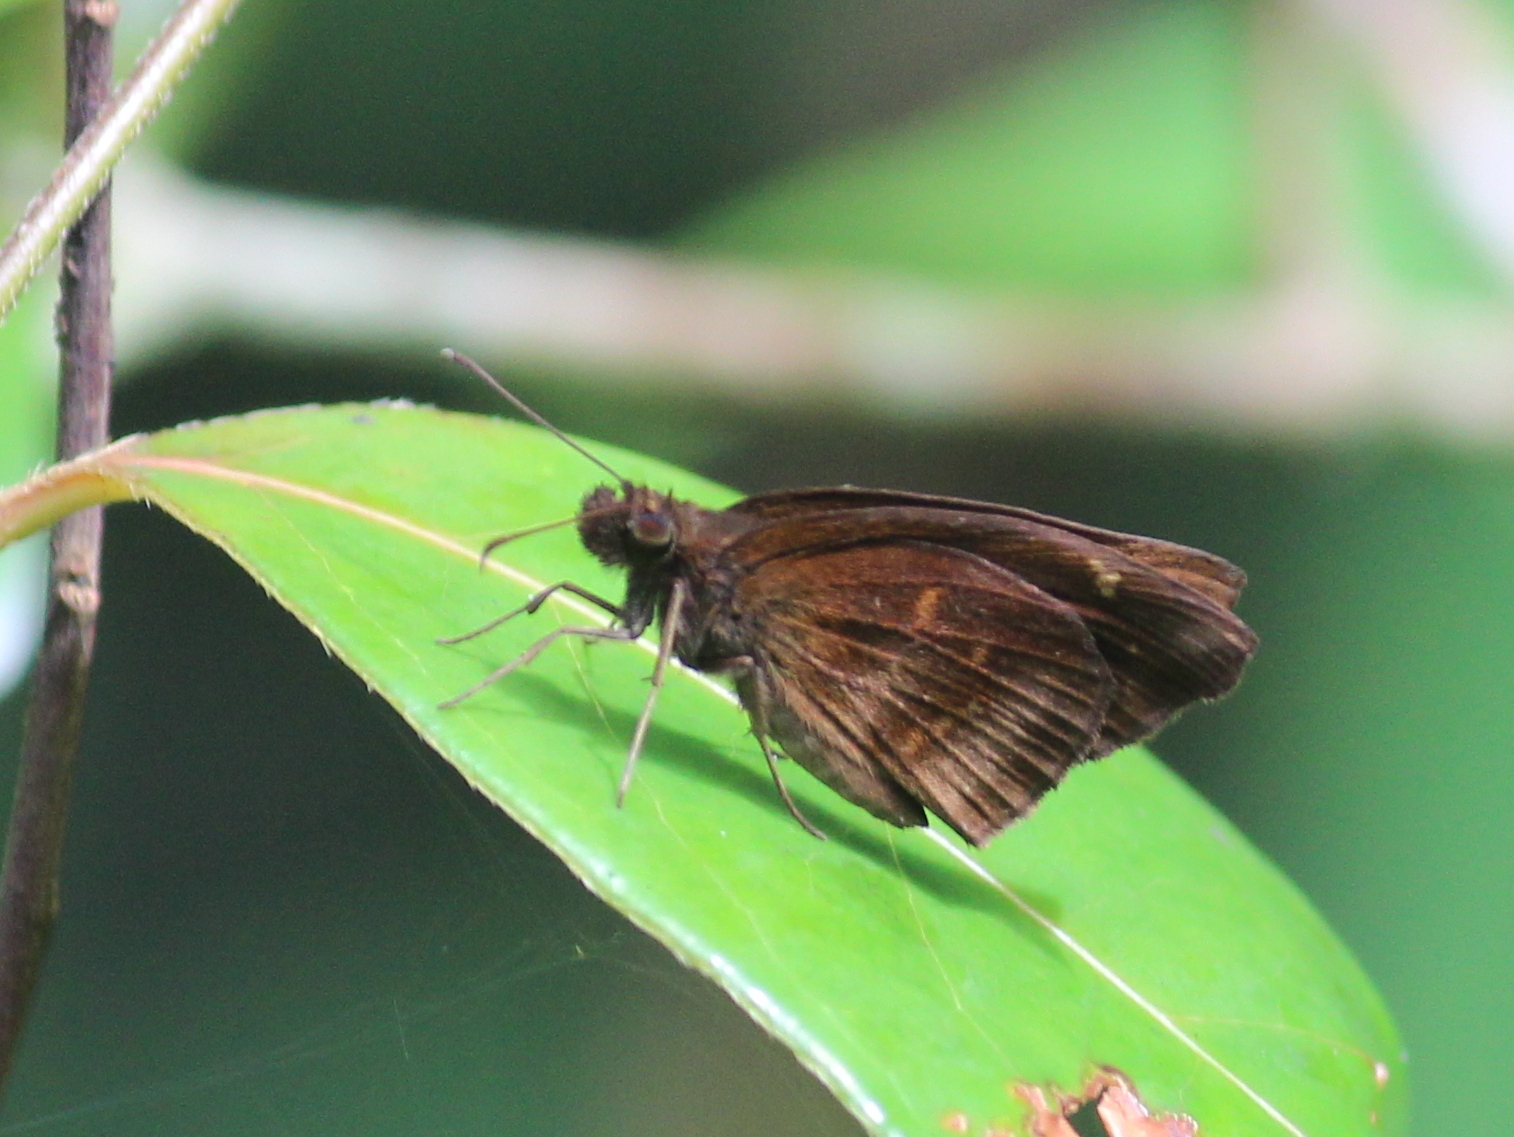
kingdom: Animalia
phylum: Arthropoda
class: Insecta
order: Lepidoptera
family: Hesperiidae
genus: Psolos
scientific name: Psolos fuligo
